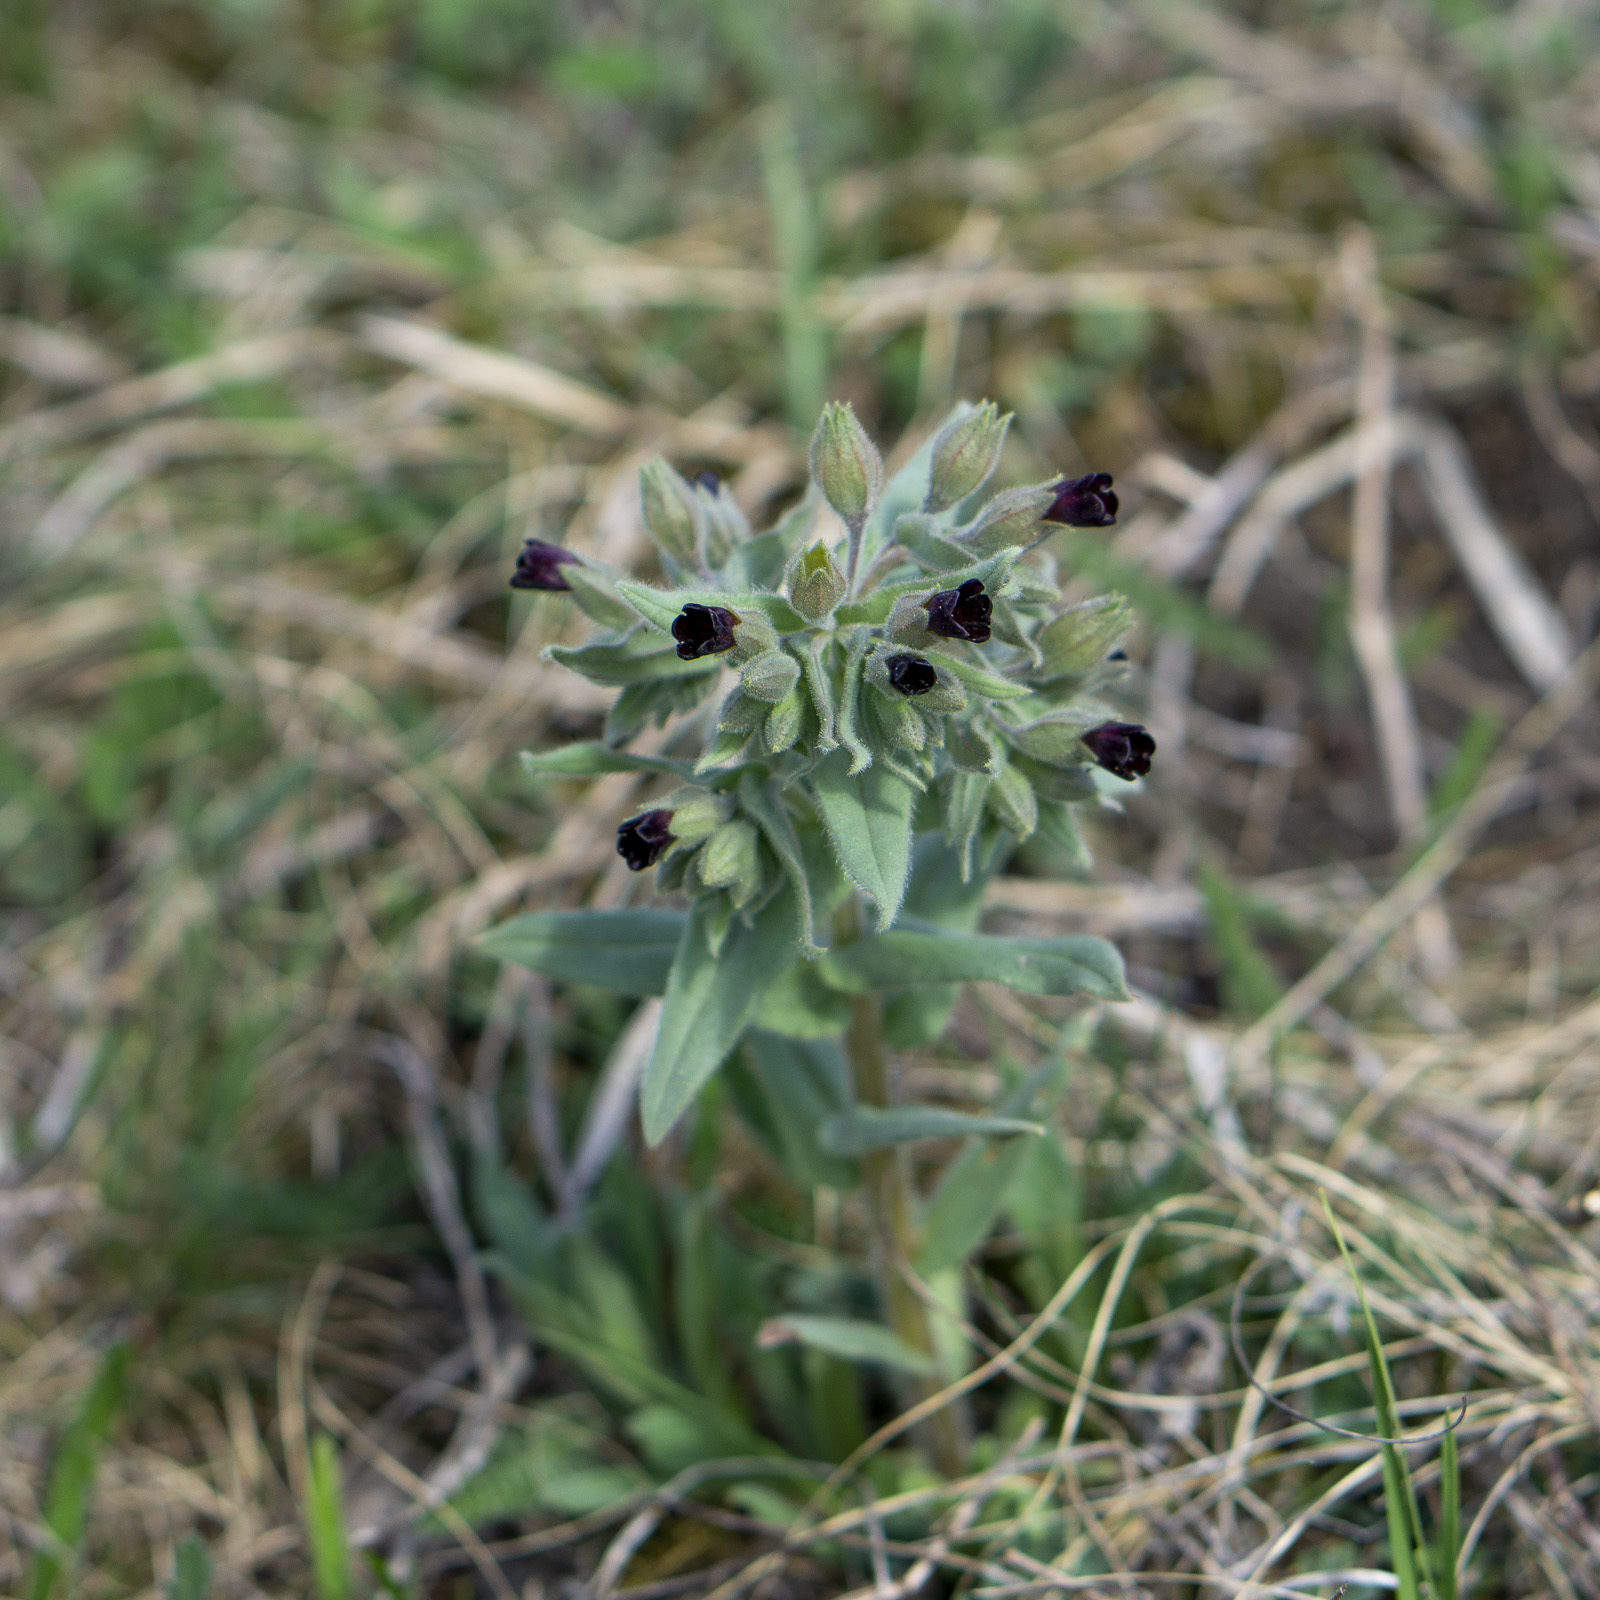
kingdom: Plantae
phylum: Tracheophyta
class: Magnoliopsida
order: Boraginales
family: Boraginaceae
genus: Nonea
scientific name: Nonea pulla
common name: Brown nonea
